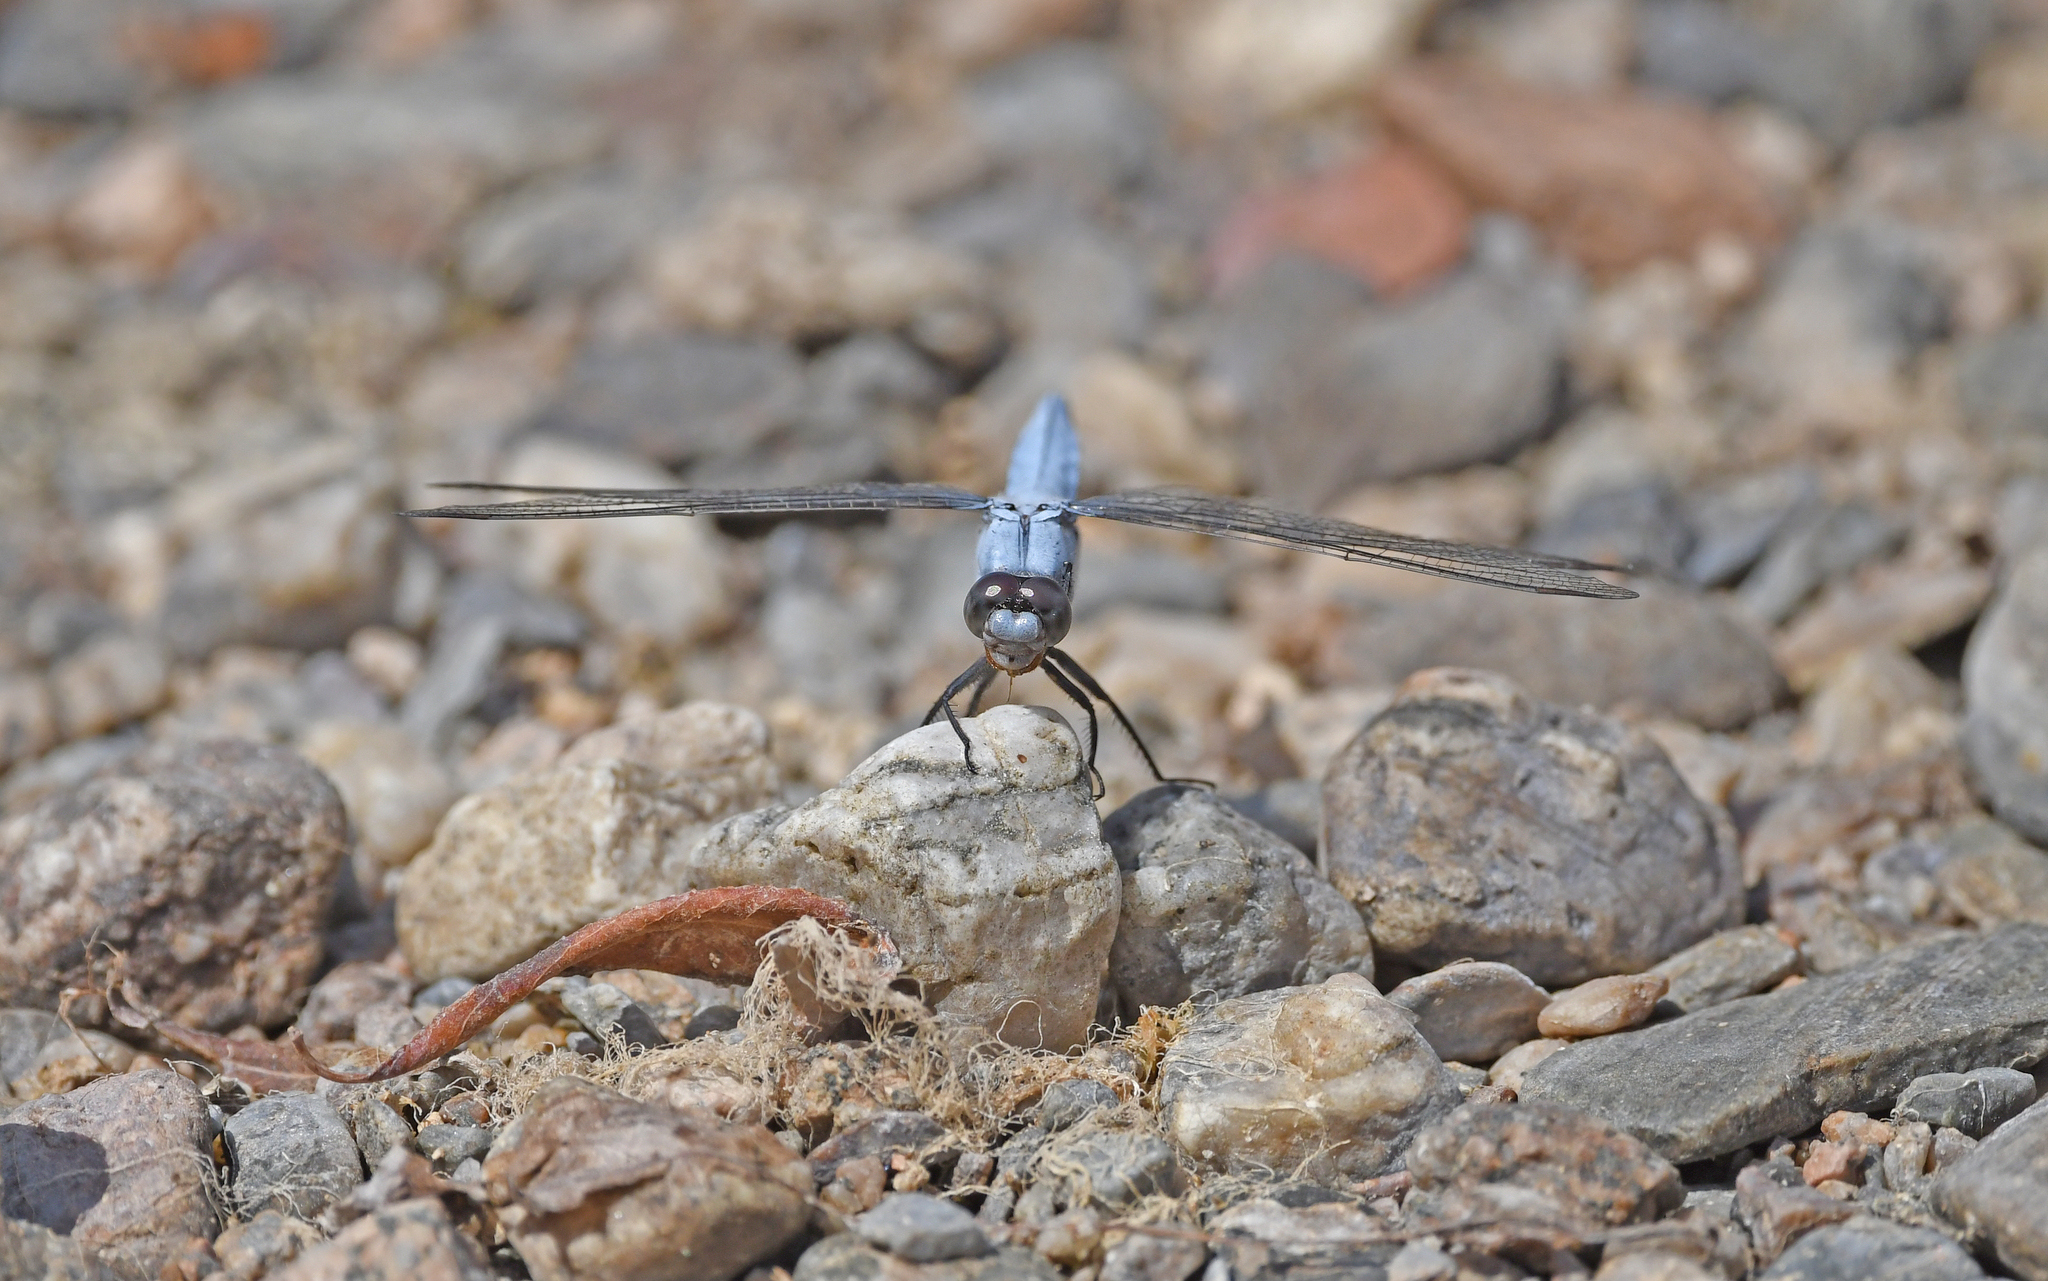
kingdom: Animalia
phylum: Arthropoda
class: Insecta
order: Odonata
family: Libellulidae
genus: Orthetrum
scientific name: Orthetrum brunneum
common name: Southern skimmer
